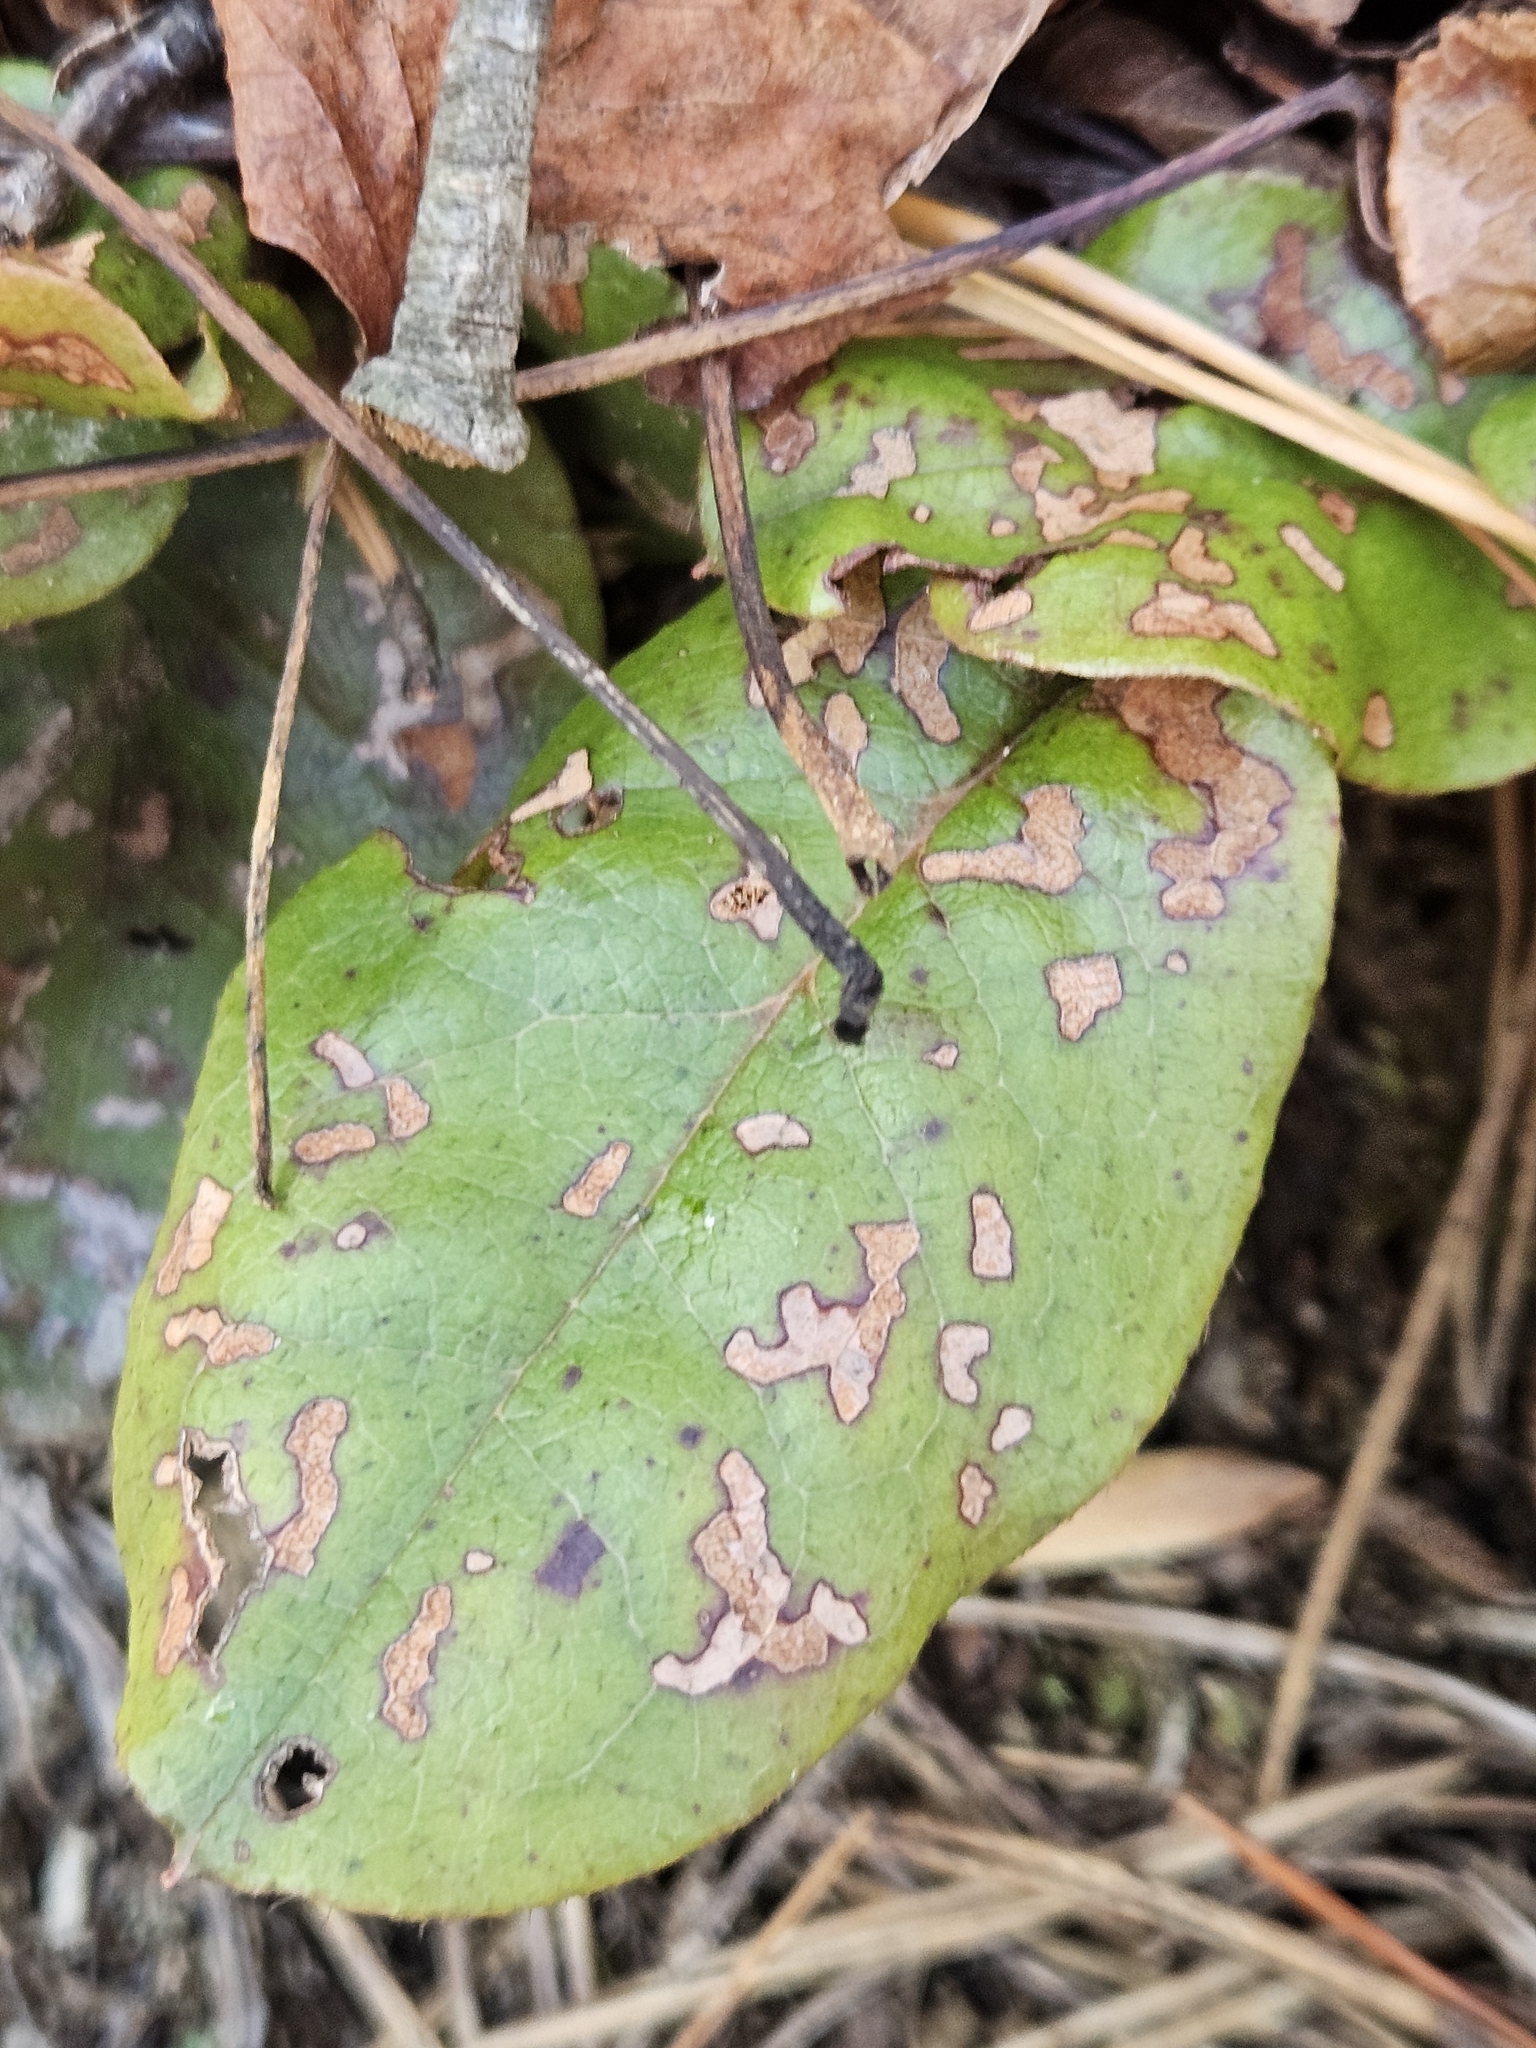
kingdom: Plantae
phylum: Tracheophyta
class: Magnoliopsida
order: Ericales
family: Ericaceae
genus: Epigaea
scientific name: Epigaea repens
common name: Gravelroot
